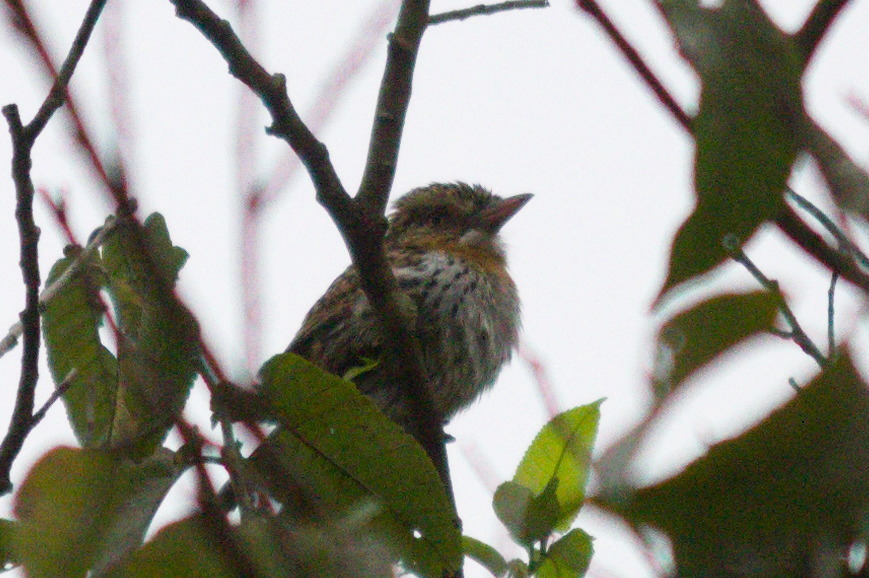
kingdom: Animalia
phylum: Chordata
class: Aves
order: Piciformes
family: Bucconidae
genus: Nystalus
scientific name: Nystalus striatipectus
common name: Chaco puffbird
